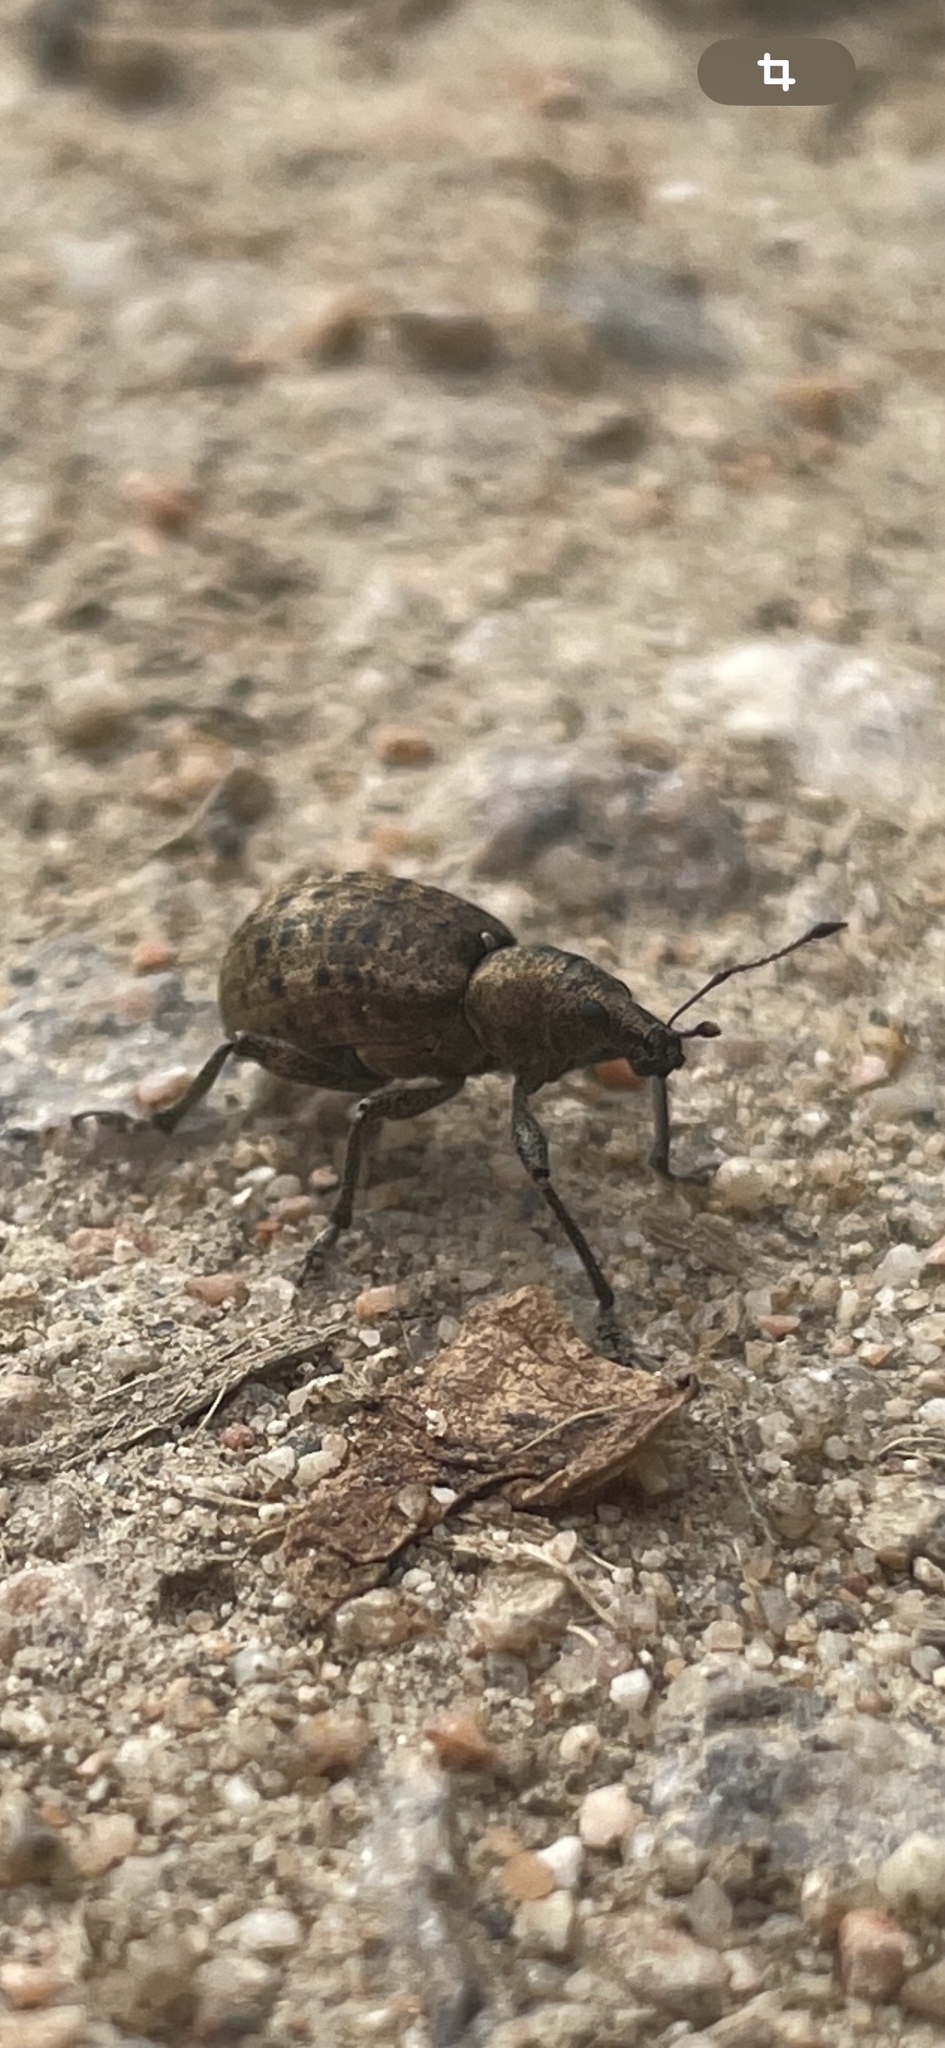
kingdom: Animalia
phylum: Arthropoda
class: Insecta
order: Coleoptera
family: Curculionidae
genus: Liophloeus
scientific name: Liophloeus tessulatus
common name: Weevil
